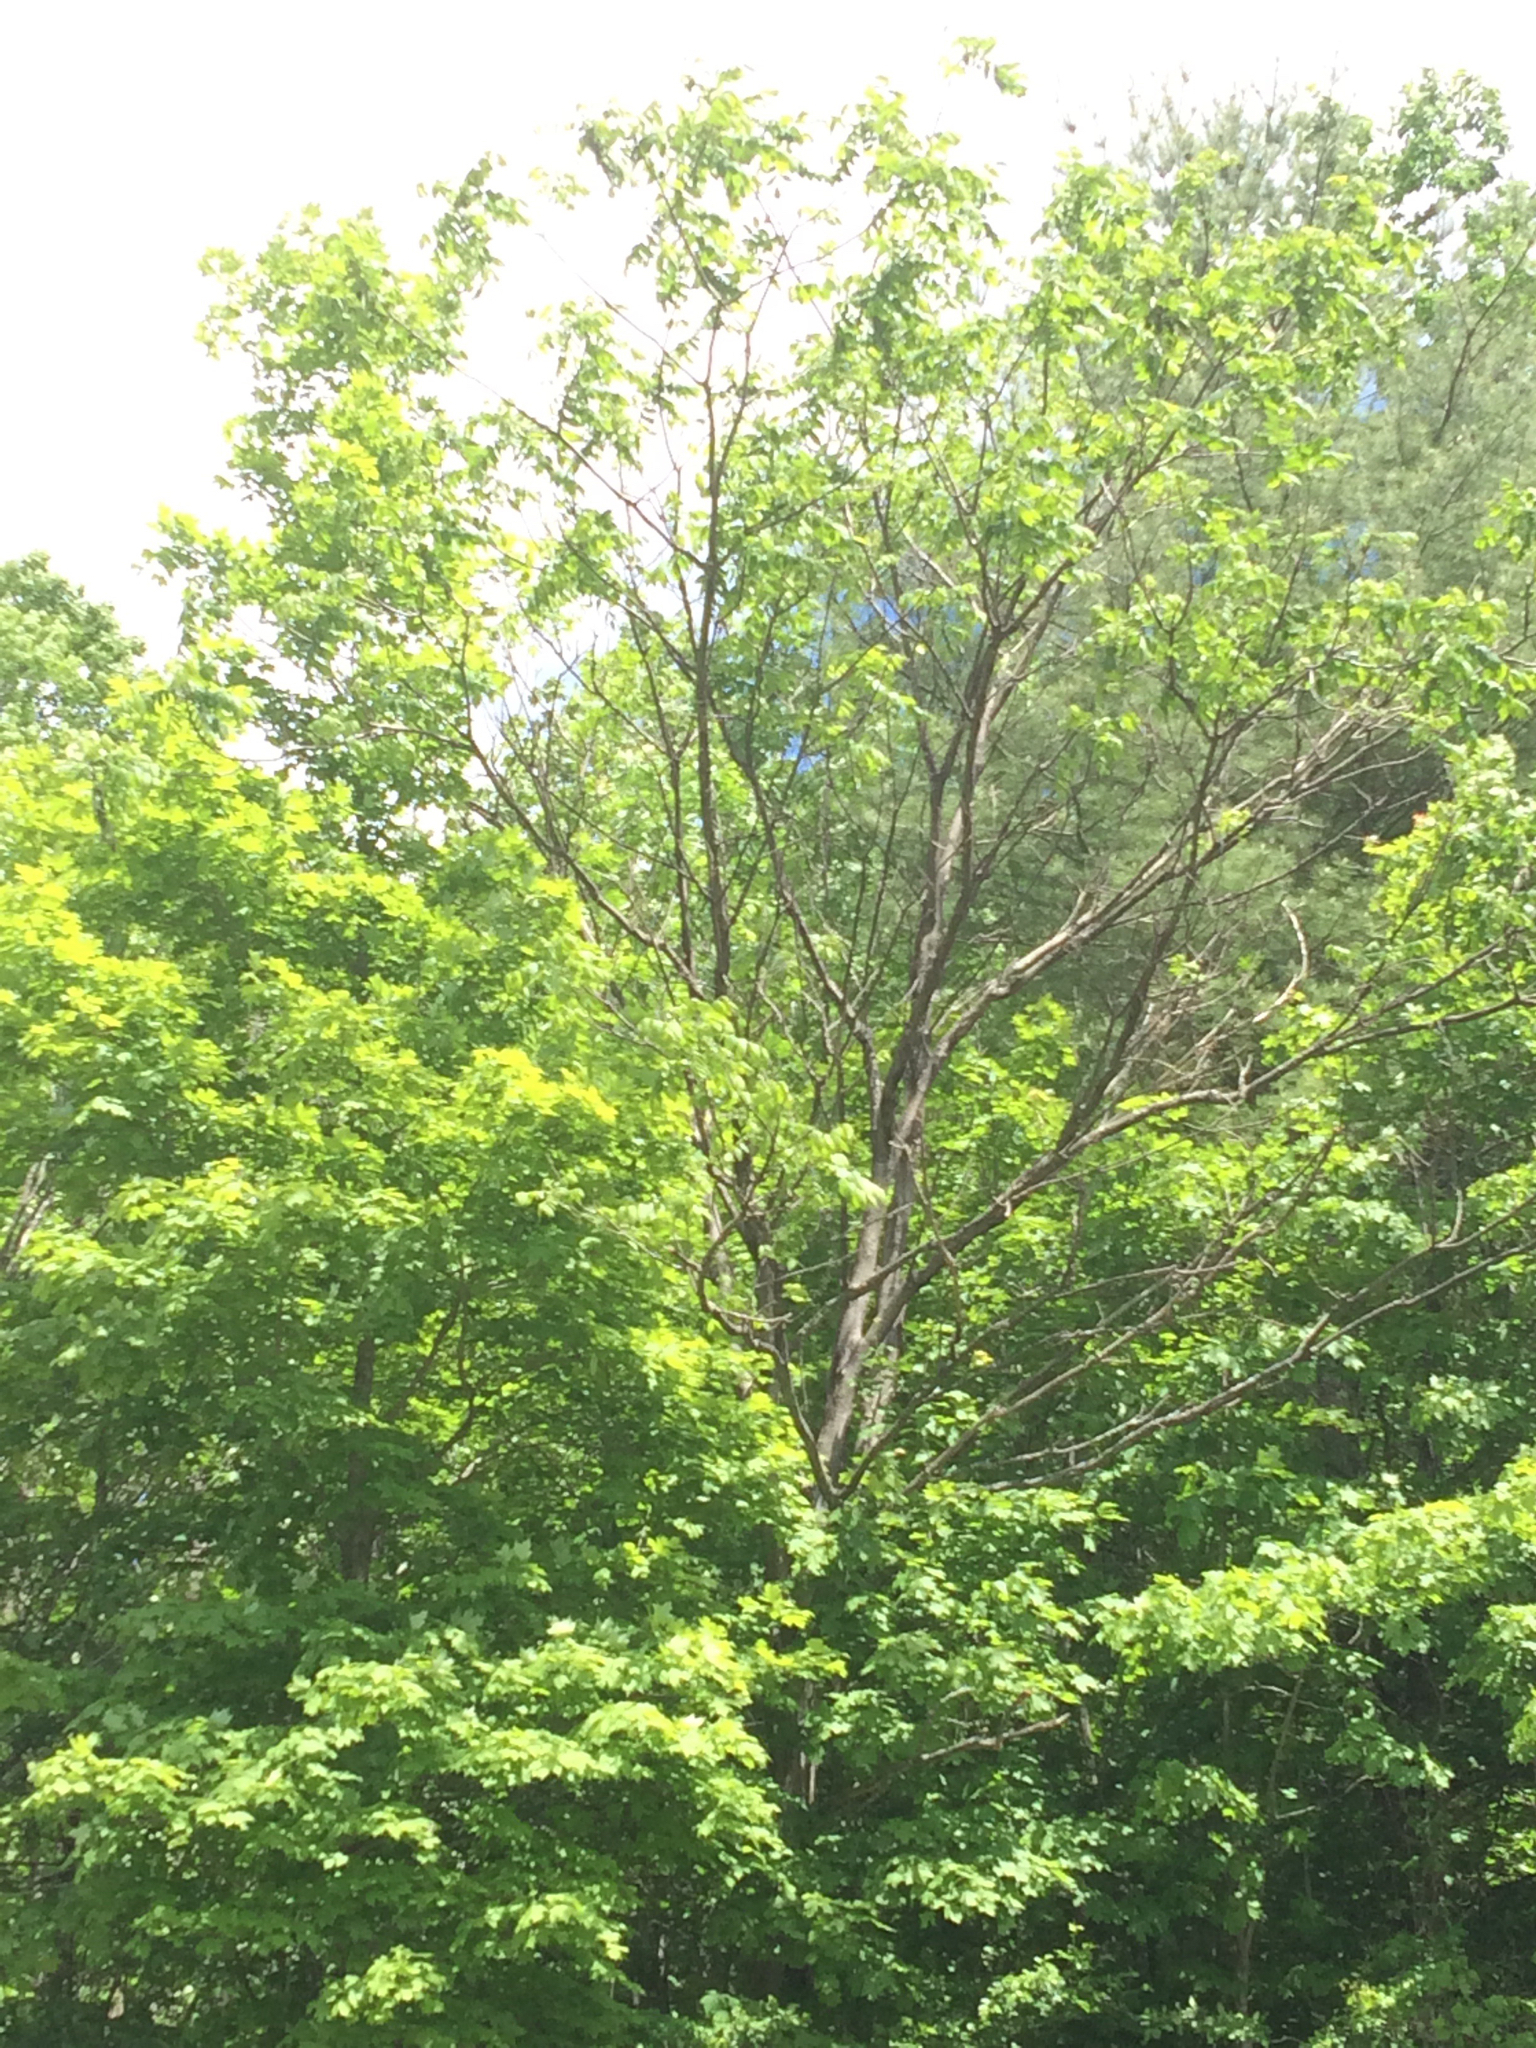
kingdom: Plantae
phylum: Tracheophyta
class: Magnoliopsida
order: Fagales
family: Juglandaceae
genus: Juglans
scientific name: Juglans cinerea
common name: Butternut
